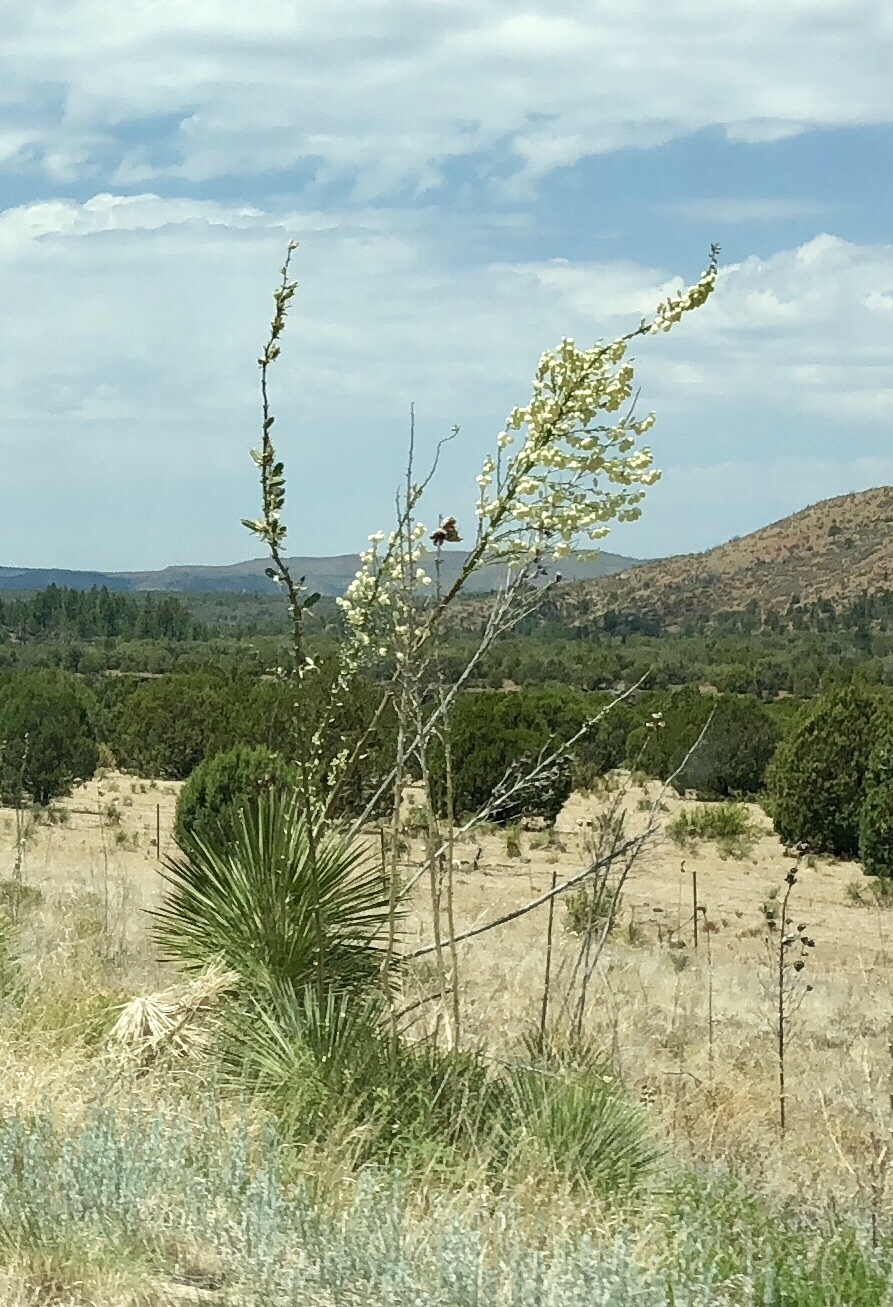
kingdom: Plantae
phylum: Tracheophyta
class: Liliopsida
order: Asparagales
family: Asparagaceae
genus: Yucca
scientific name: Yucca elata
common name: Palmella
